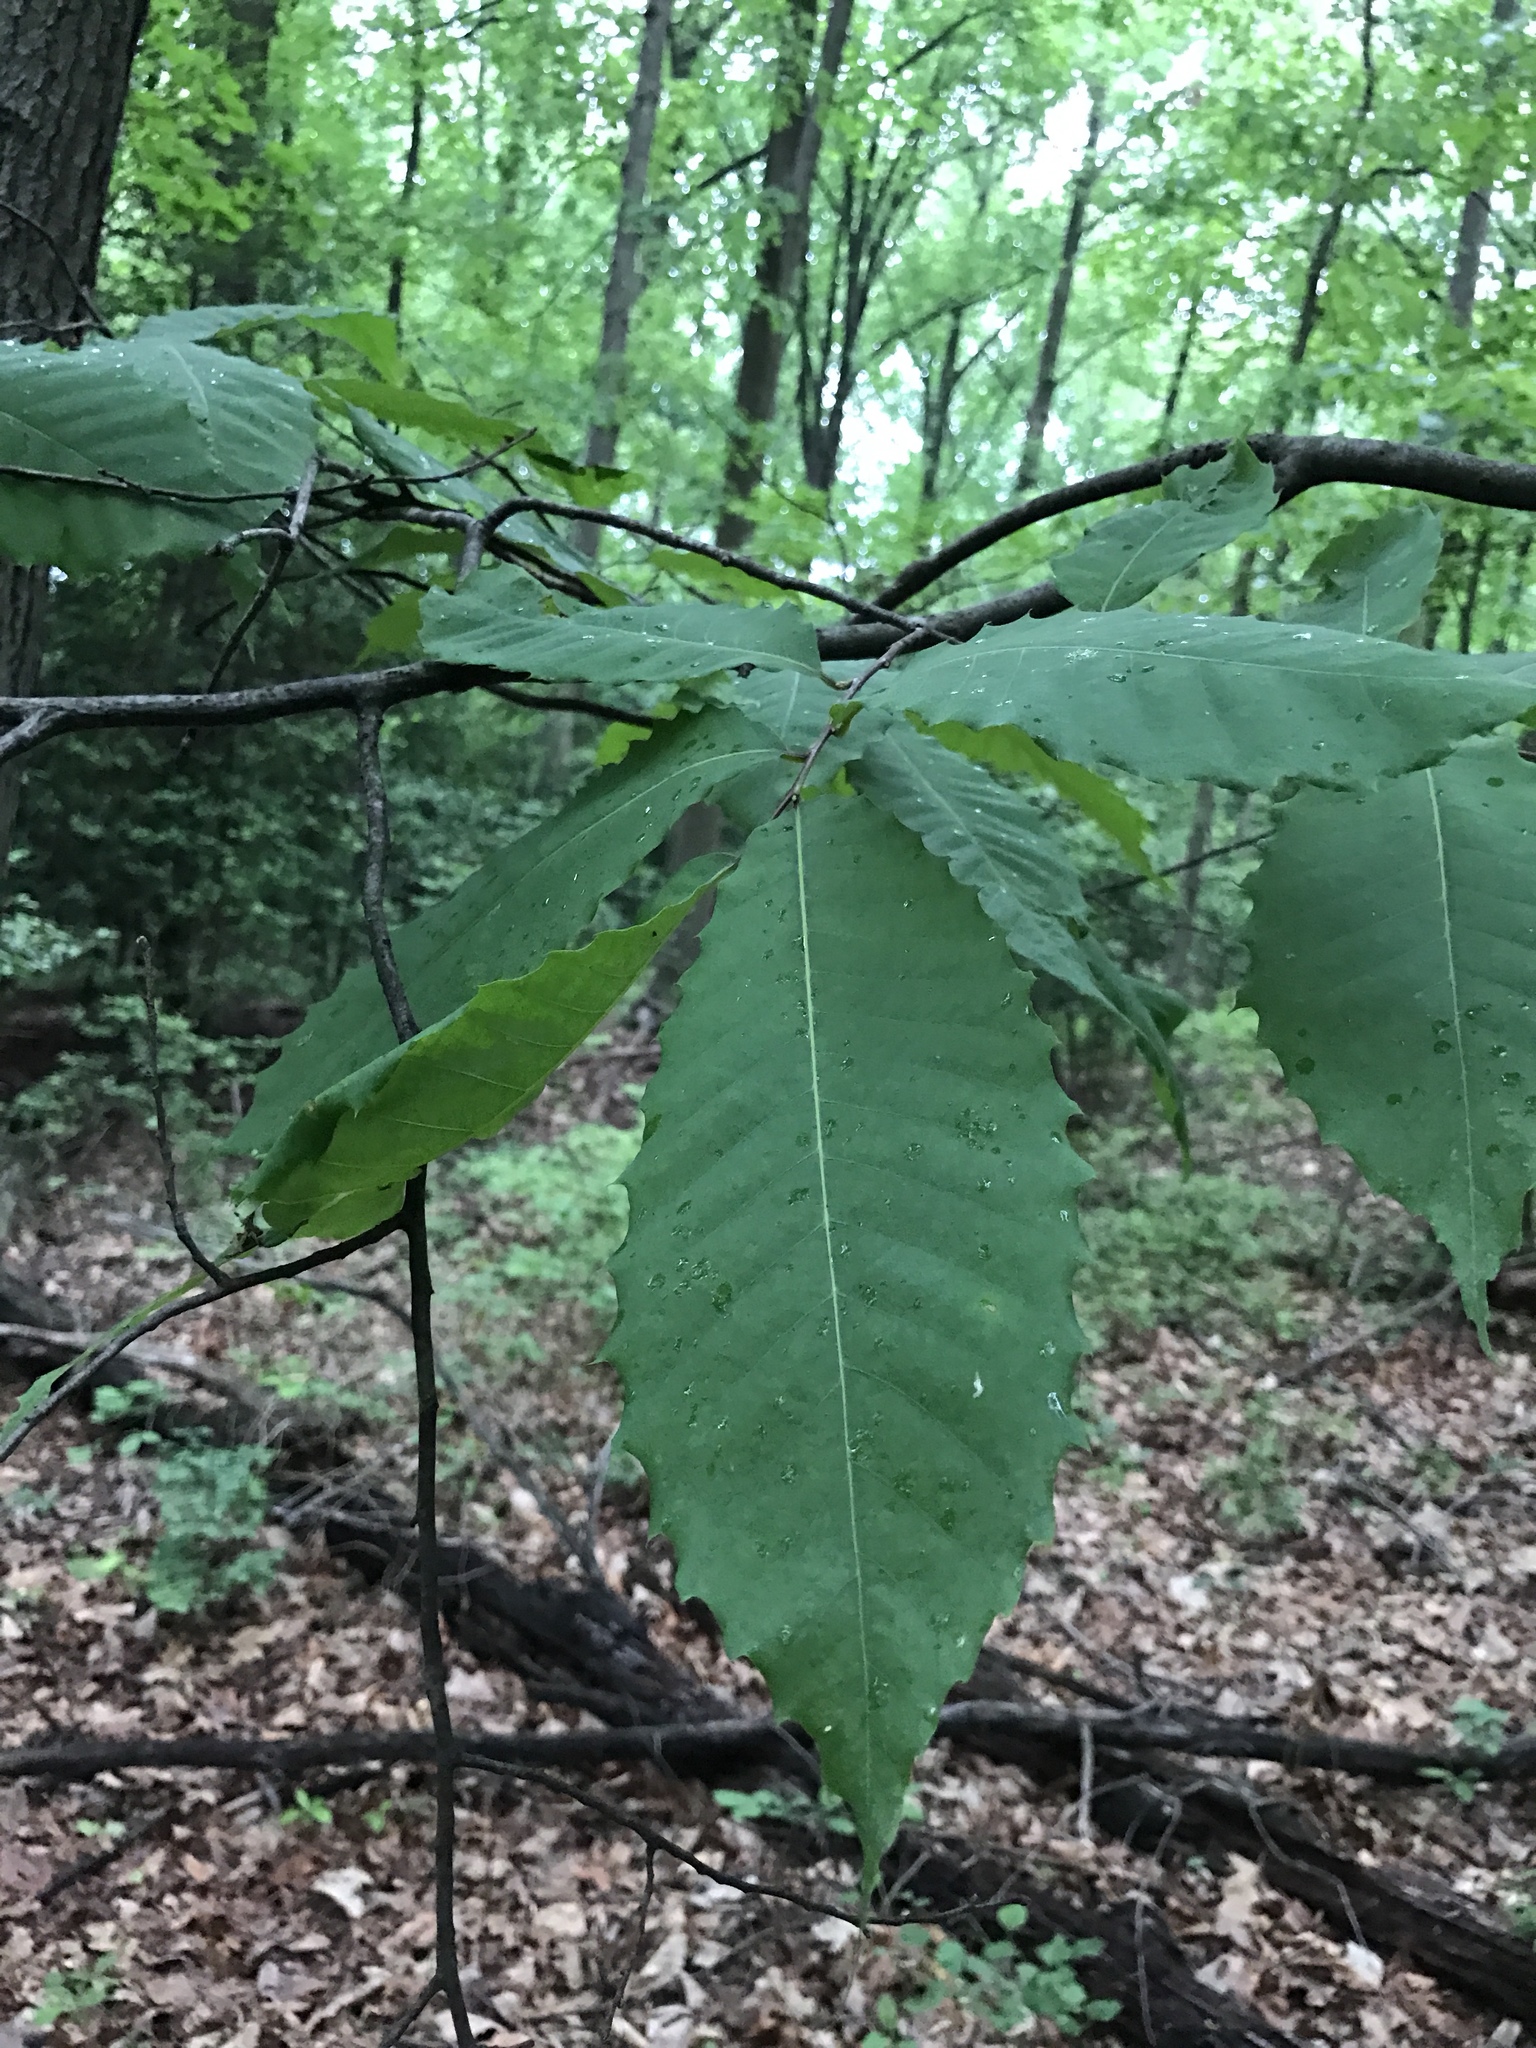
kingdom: Plantae
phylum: Tracheophyta
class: Magnoliopsida
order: Fagales
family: Fagaceae
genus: Castanea
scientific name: Castanea dentata
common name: American chestnut
